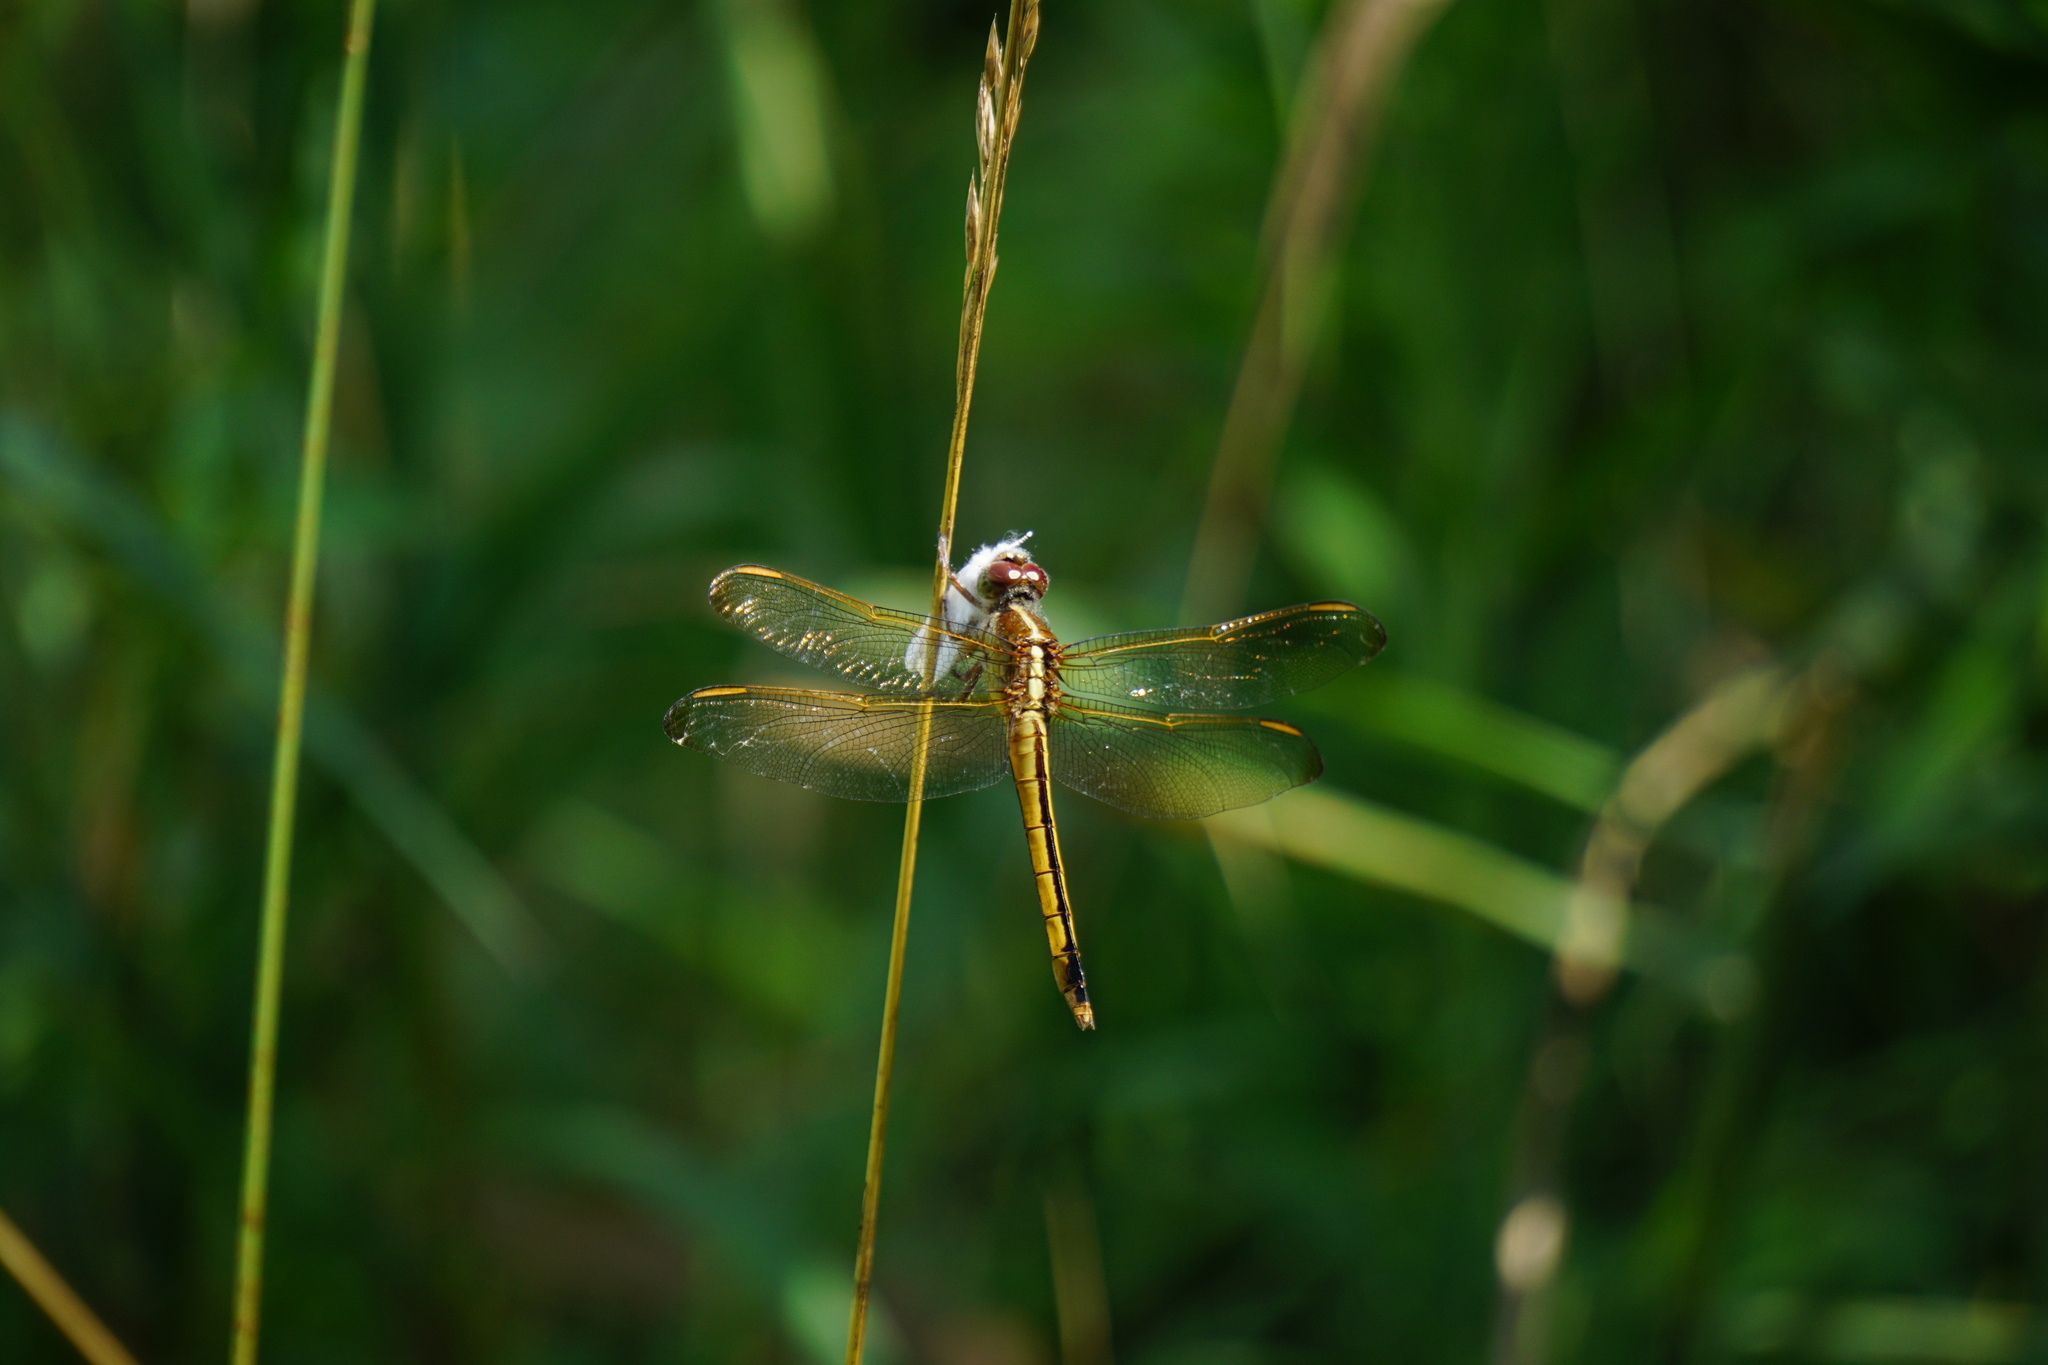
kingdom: Animalia
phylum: Arthropoda
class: Insecta
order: Odonata
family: Libellulidae
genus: Libellula
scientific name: Libellula needhami
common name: Needham's skimmer
